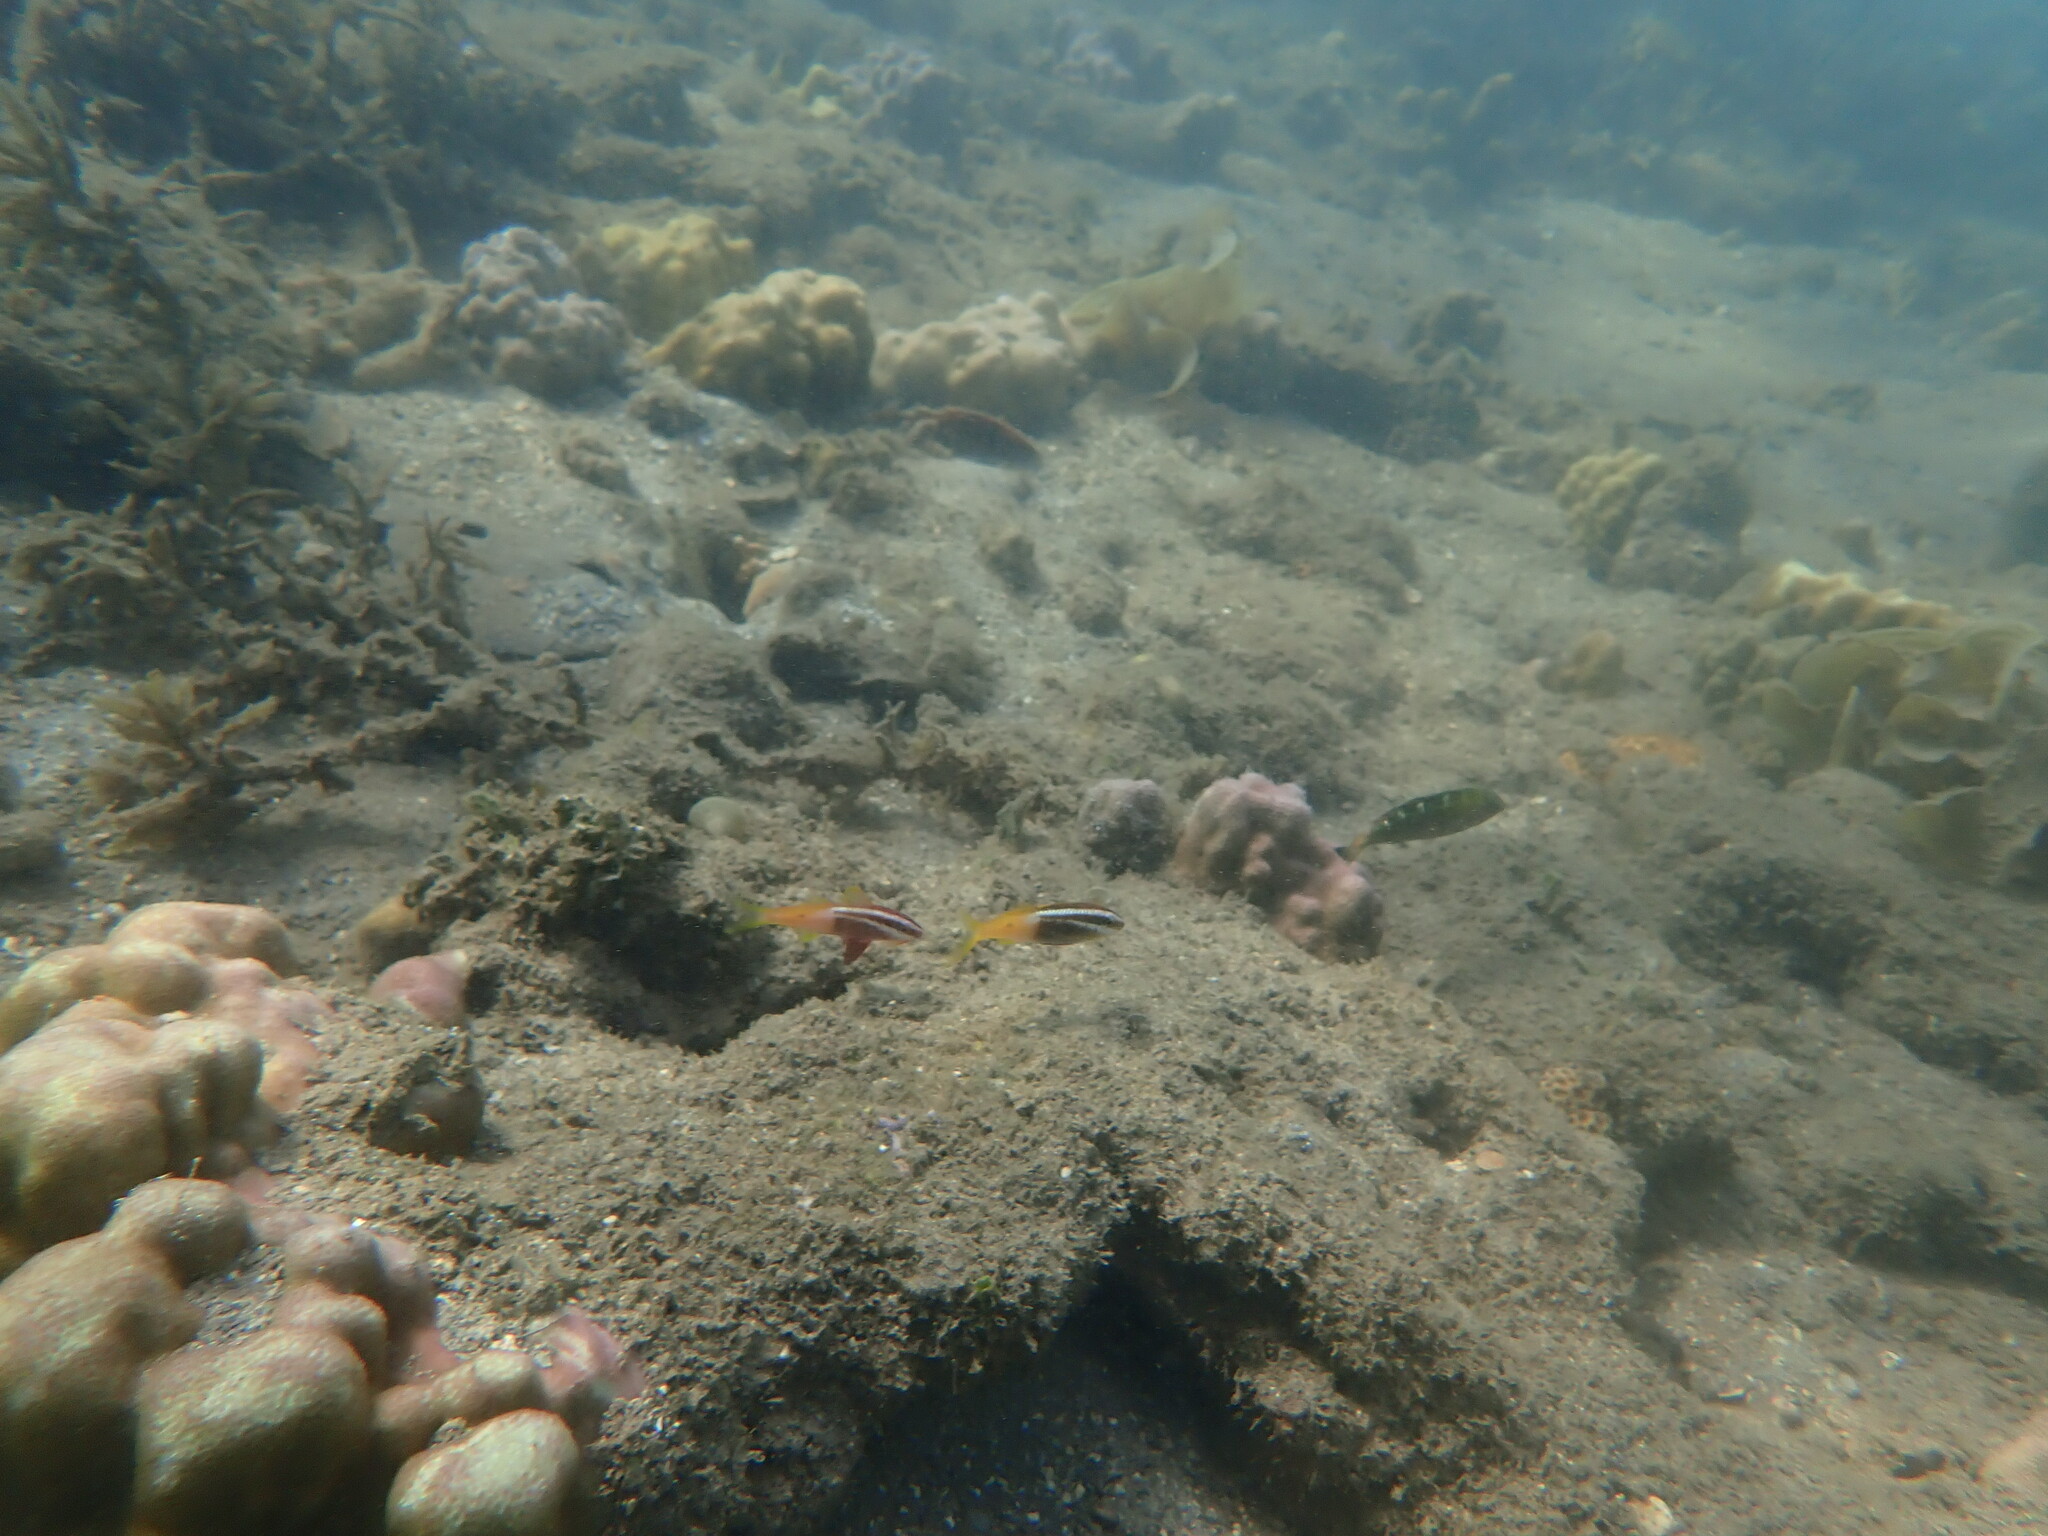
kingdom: Animalia
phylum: Chordata
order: Perciformes
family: Mullidae
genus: Parupeneus
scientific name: Parupeneus barberinoides
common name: Half-and-half goatfish
